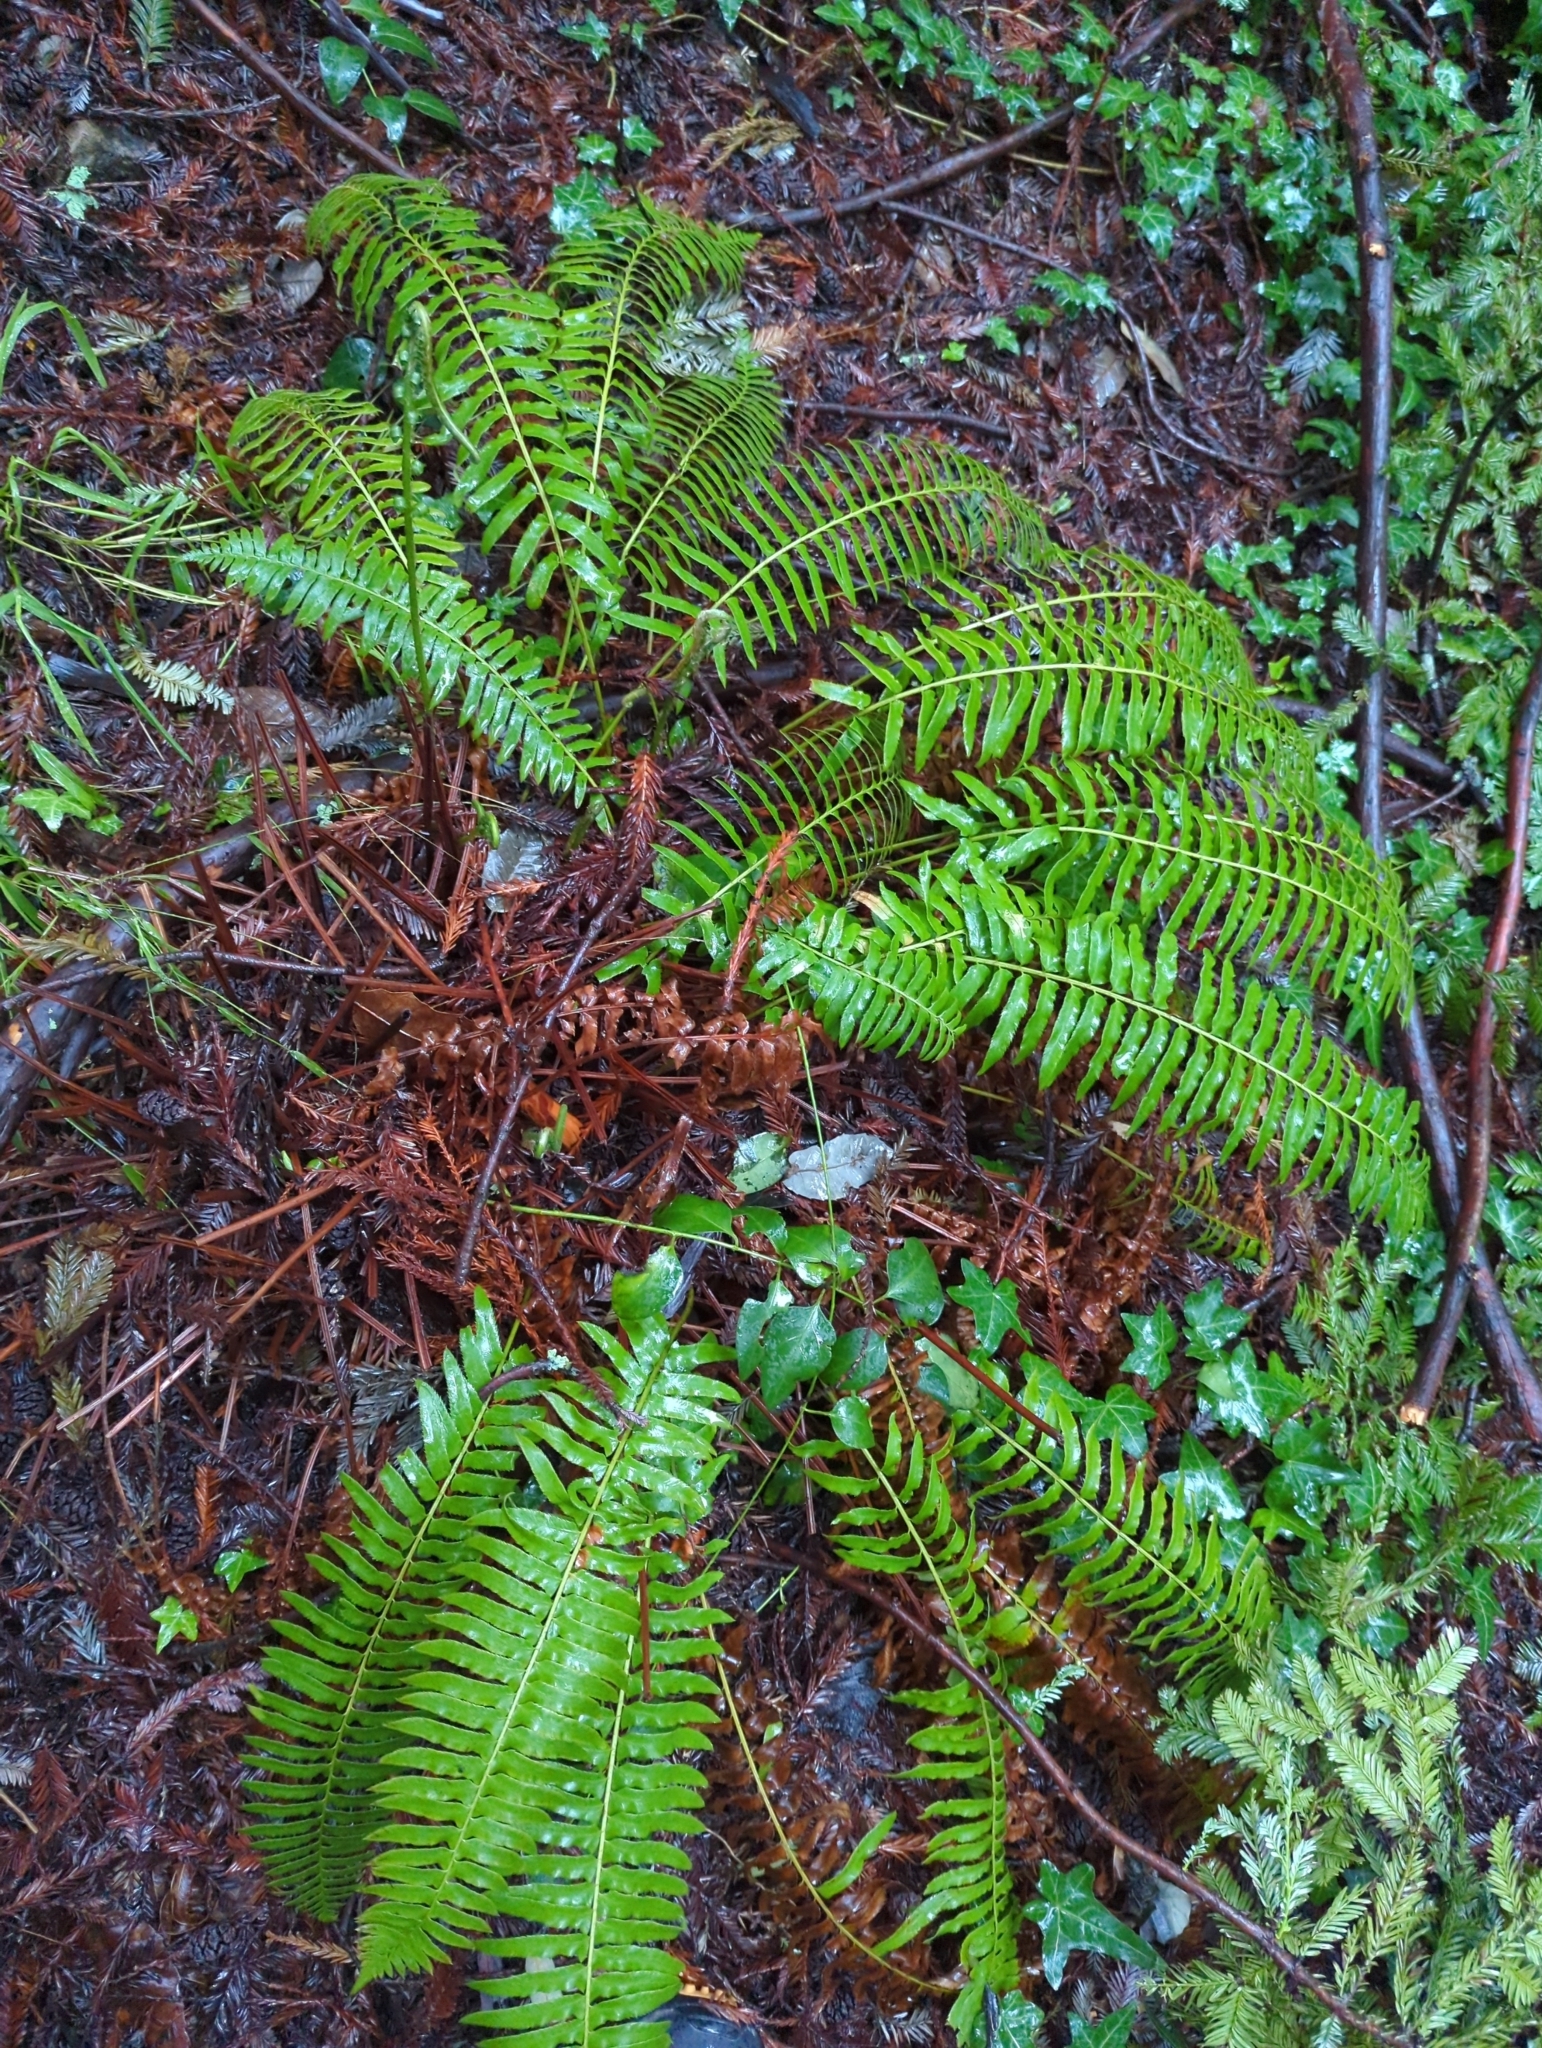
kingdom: Plantae
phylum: Tracheophyta
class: Polypodiopsida
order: Polypodiales
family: Dryopteridaceae
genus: Polystichum
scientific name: Polystichum munitum
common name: Western sword-fern
